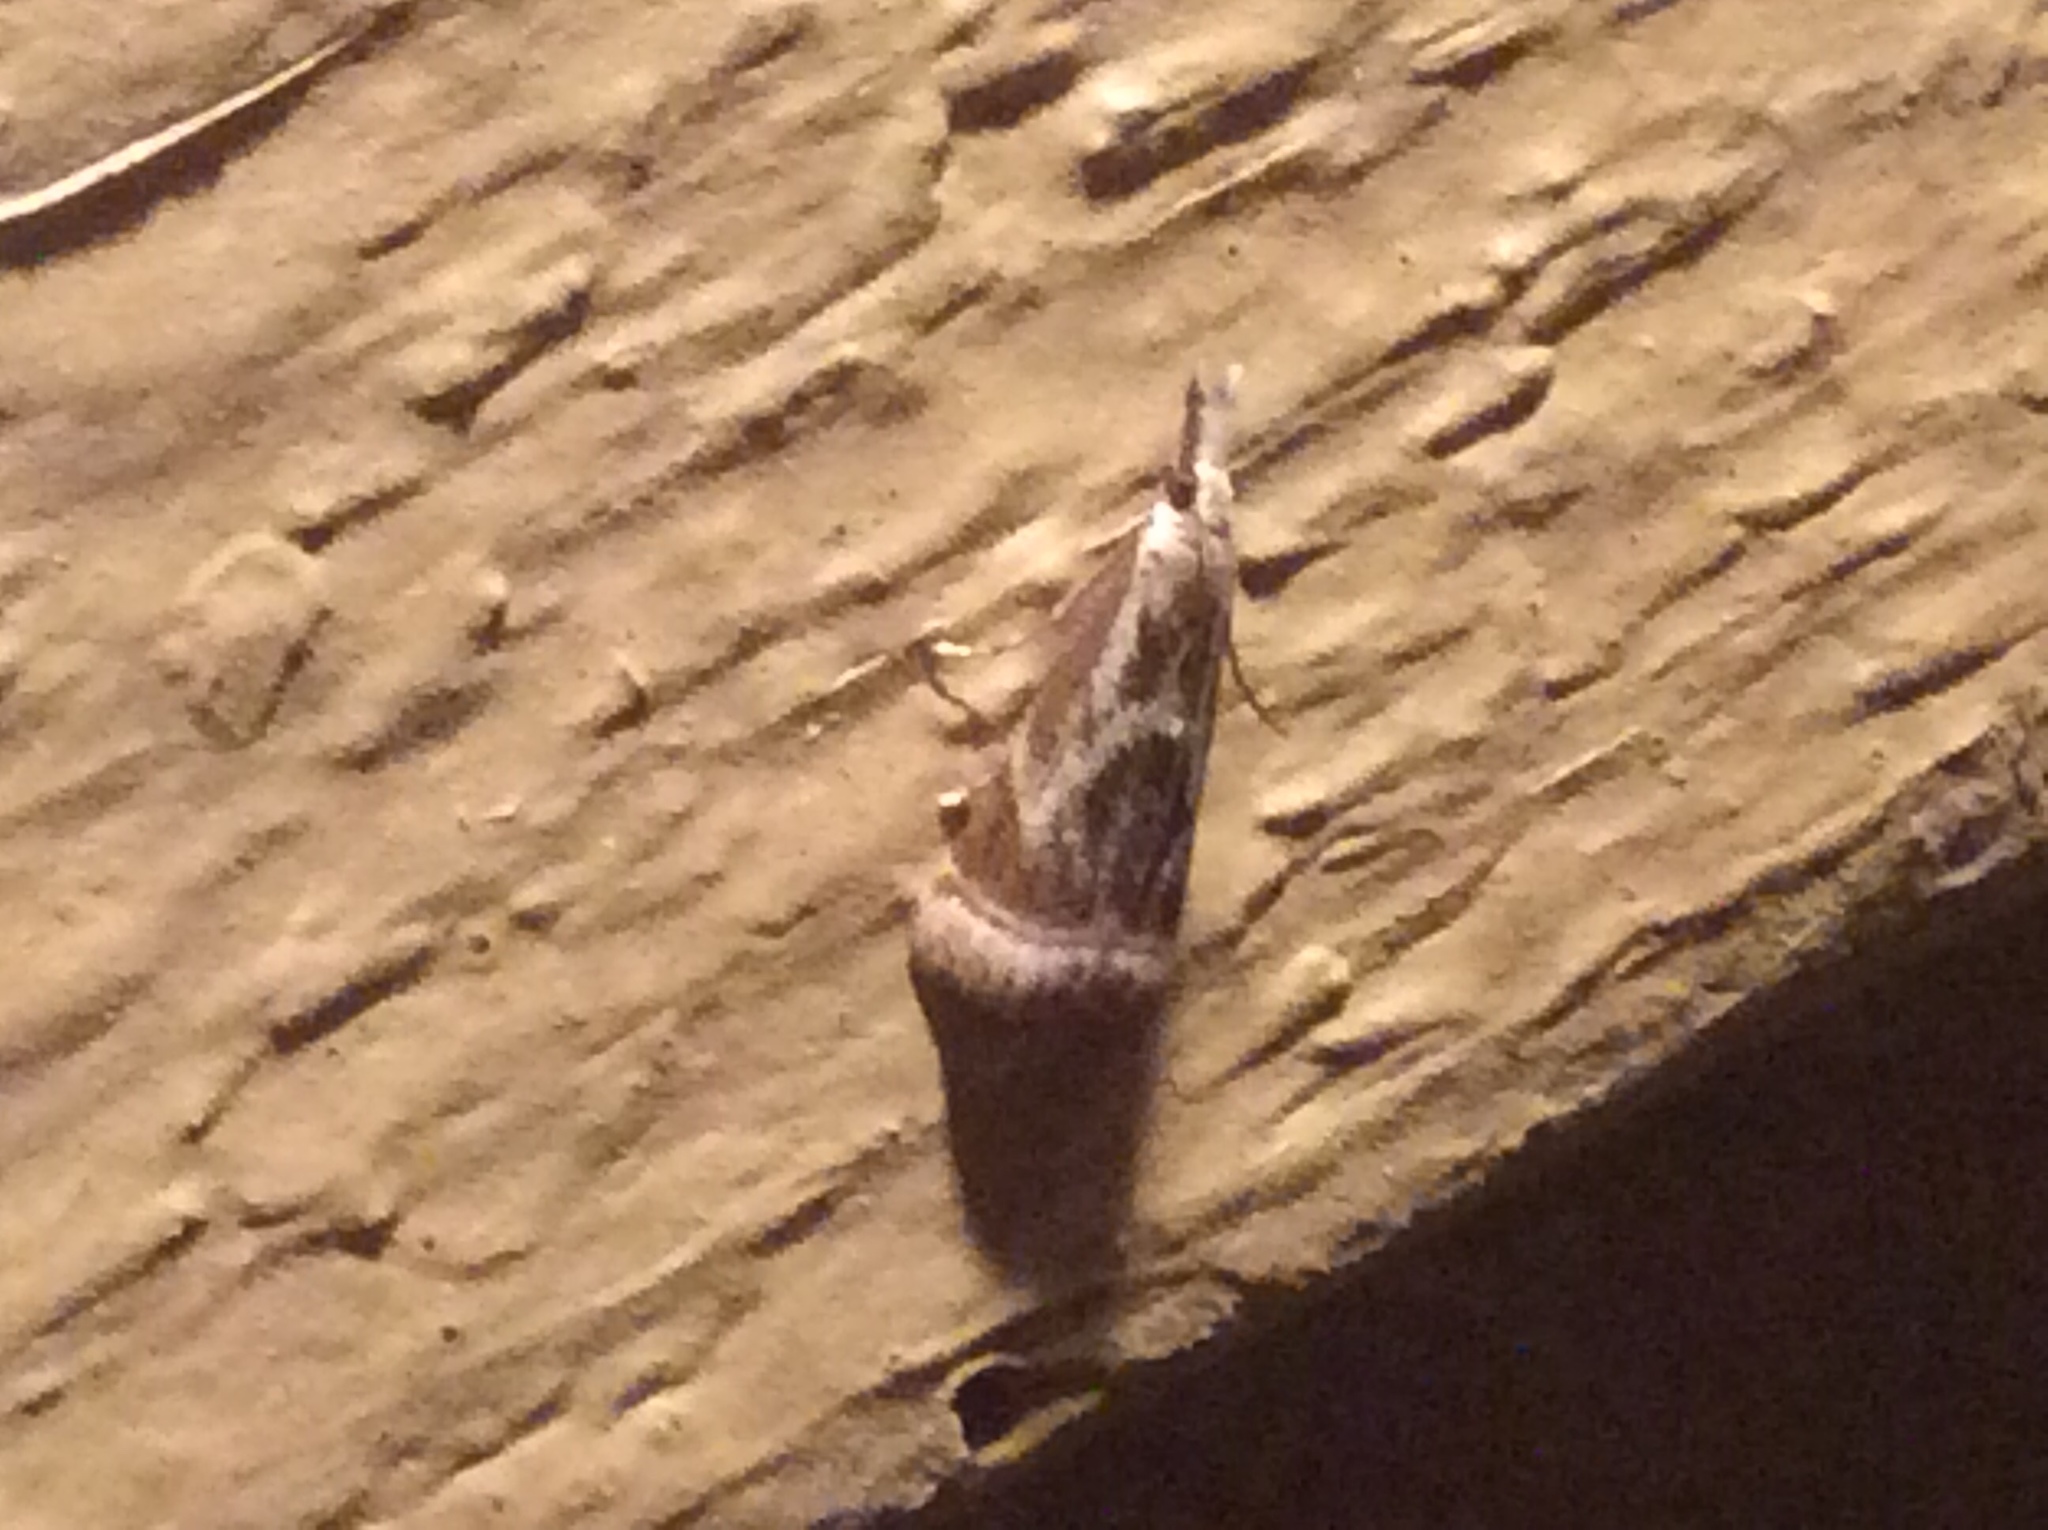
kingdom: Animalia
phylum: Arthropoda
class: Insecta
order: Lepidoptera
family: Crambidae
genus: Microcrambus
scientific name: Microcrambus elegans
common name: Elegant grass-veneer
